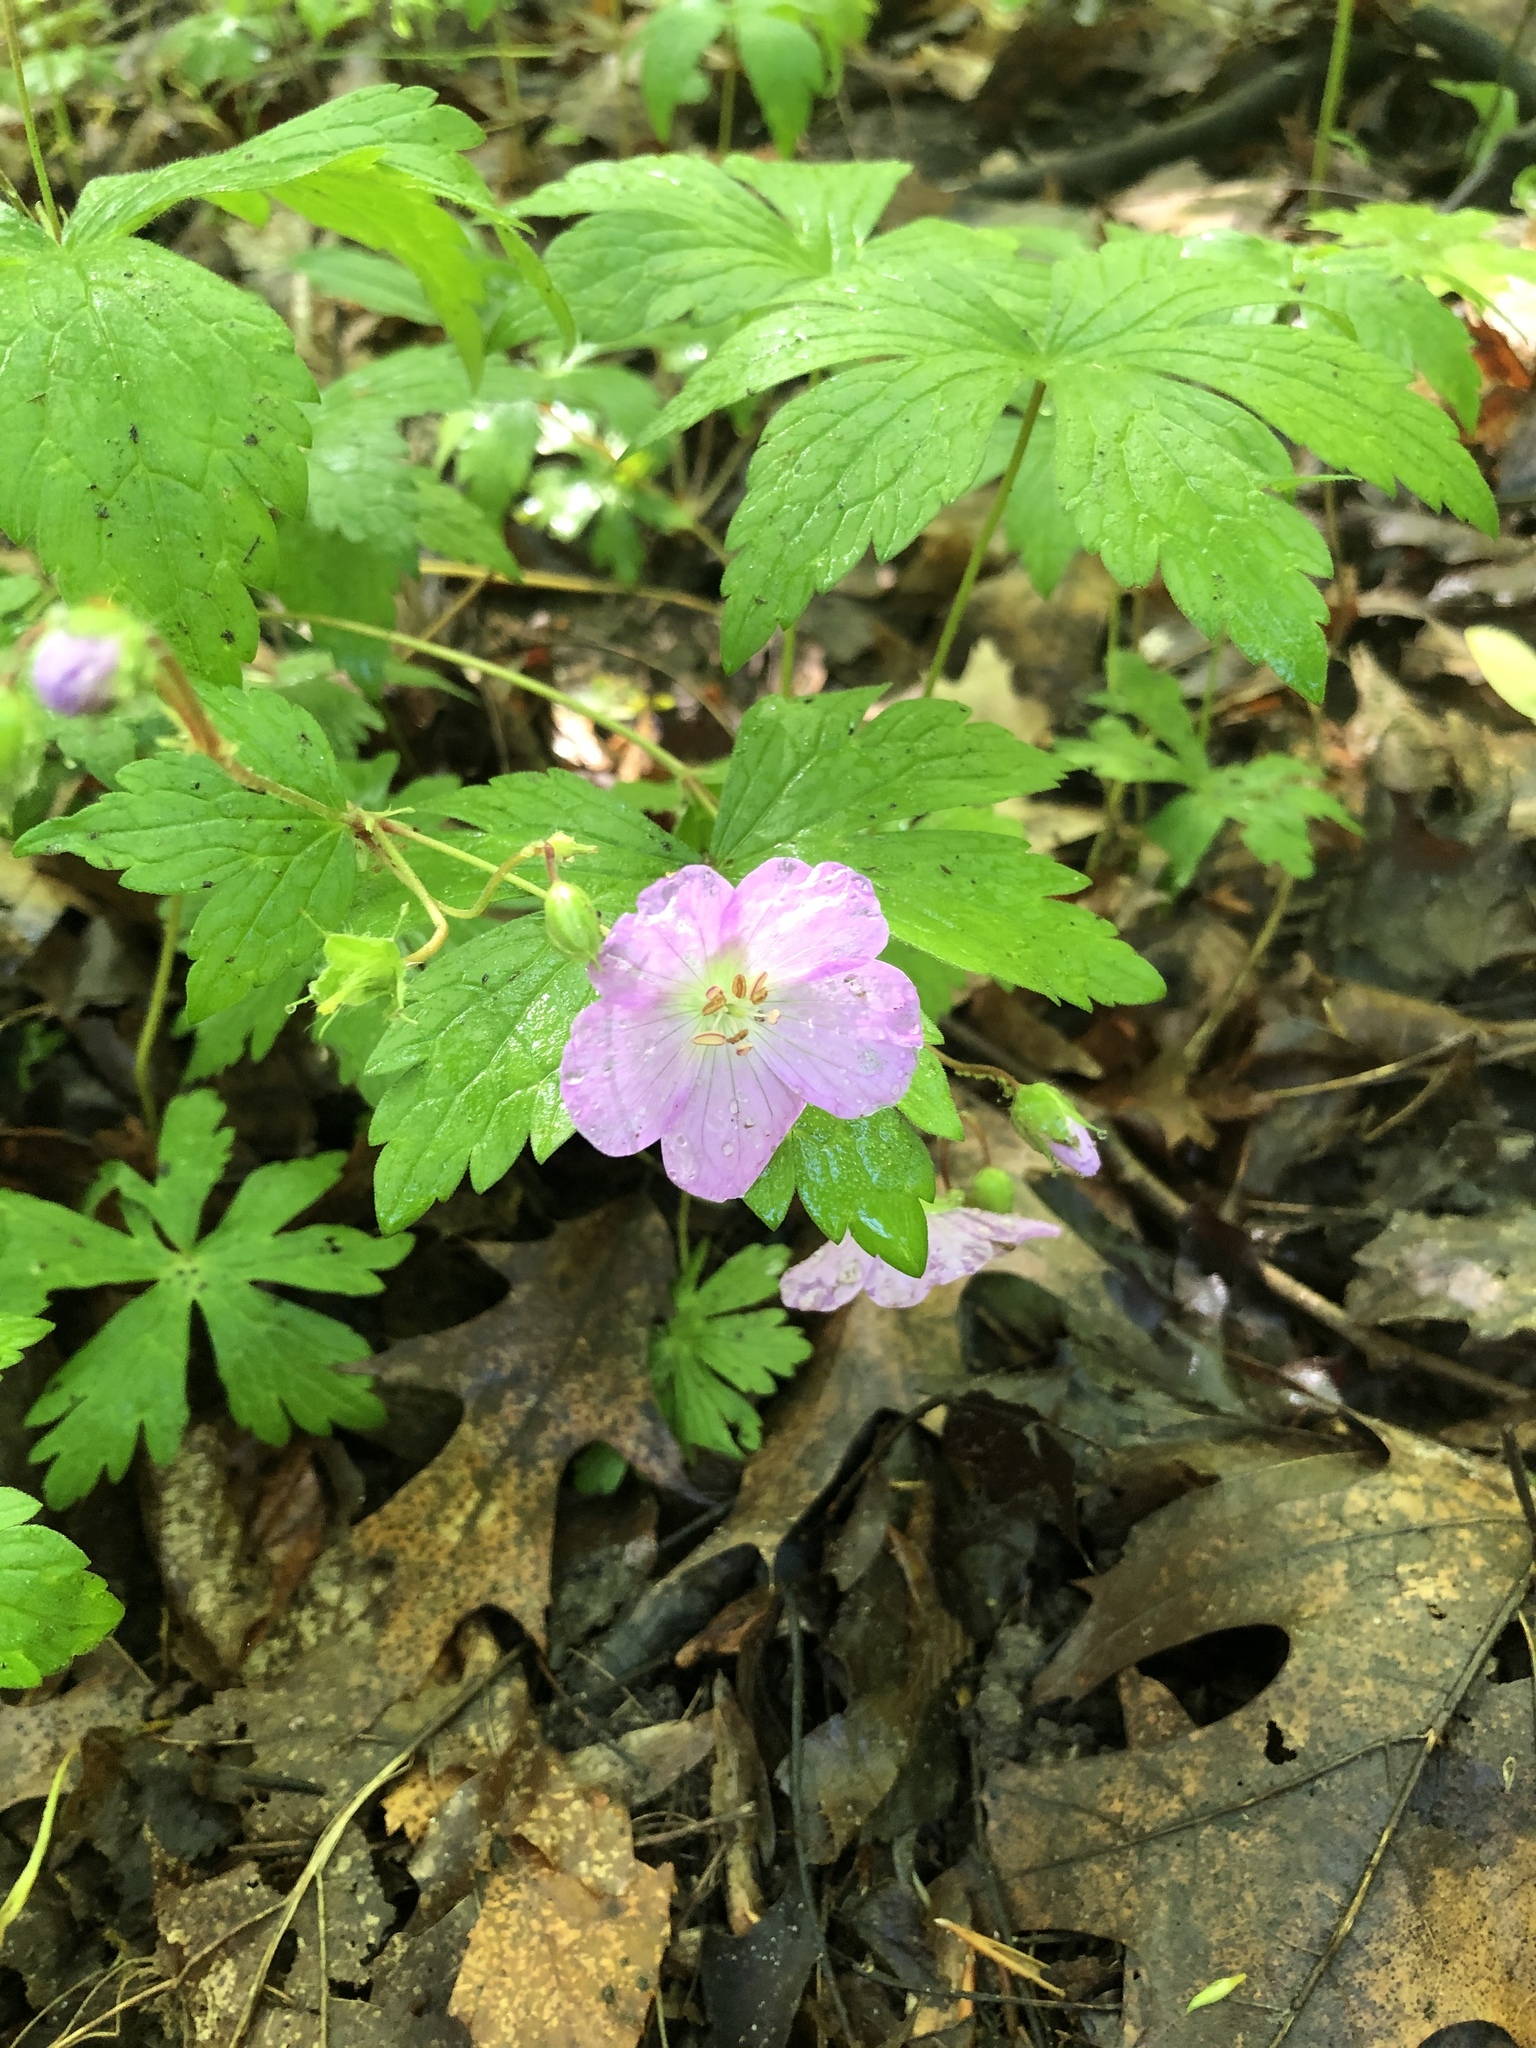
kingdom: Plantae
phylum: Tracheophyta
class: Magnoliopsida
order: Geraniales
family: Geraniaceae
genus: Geranium
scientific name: Geranium maculatum
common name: Spotted geranium
